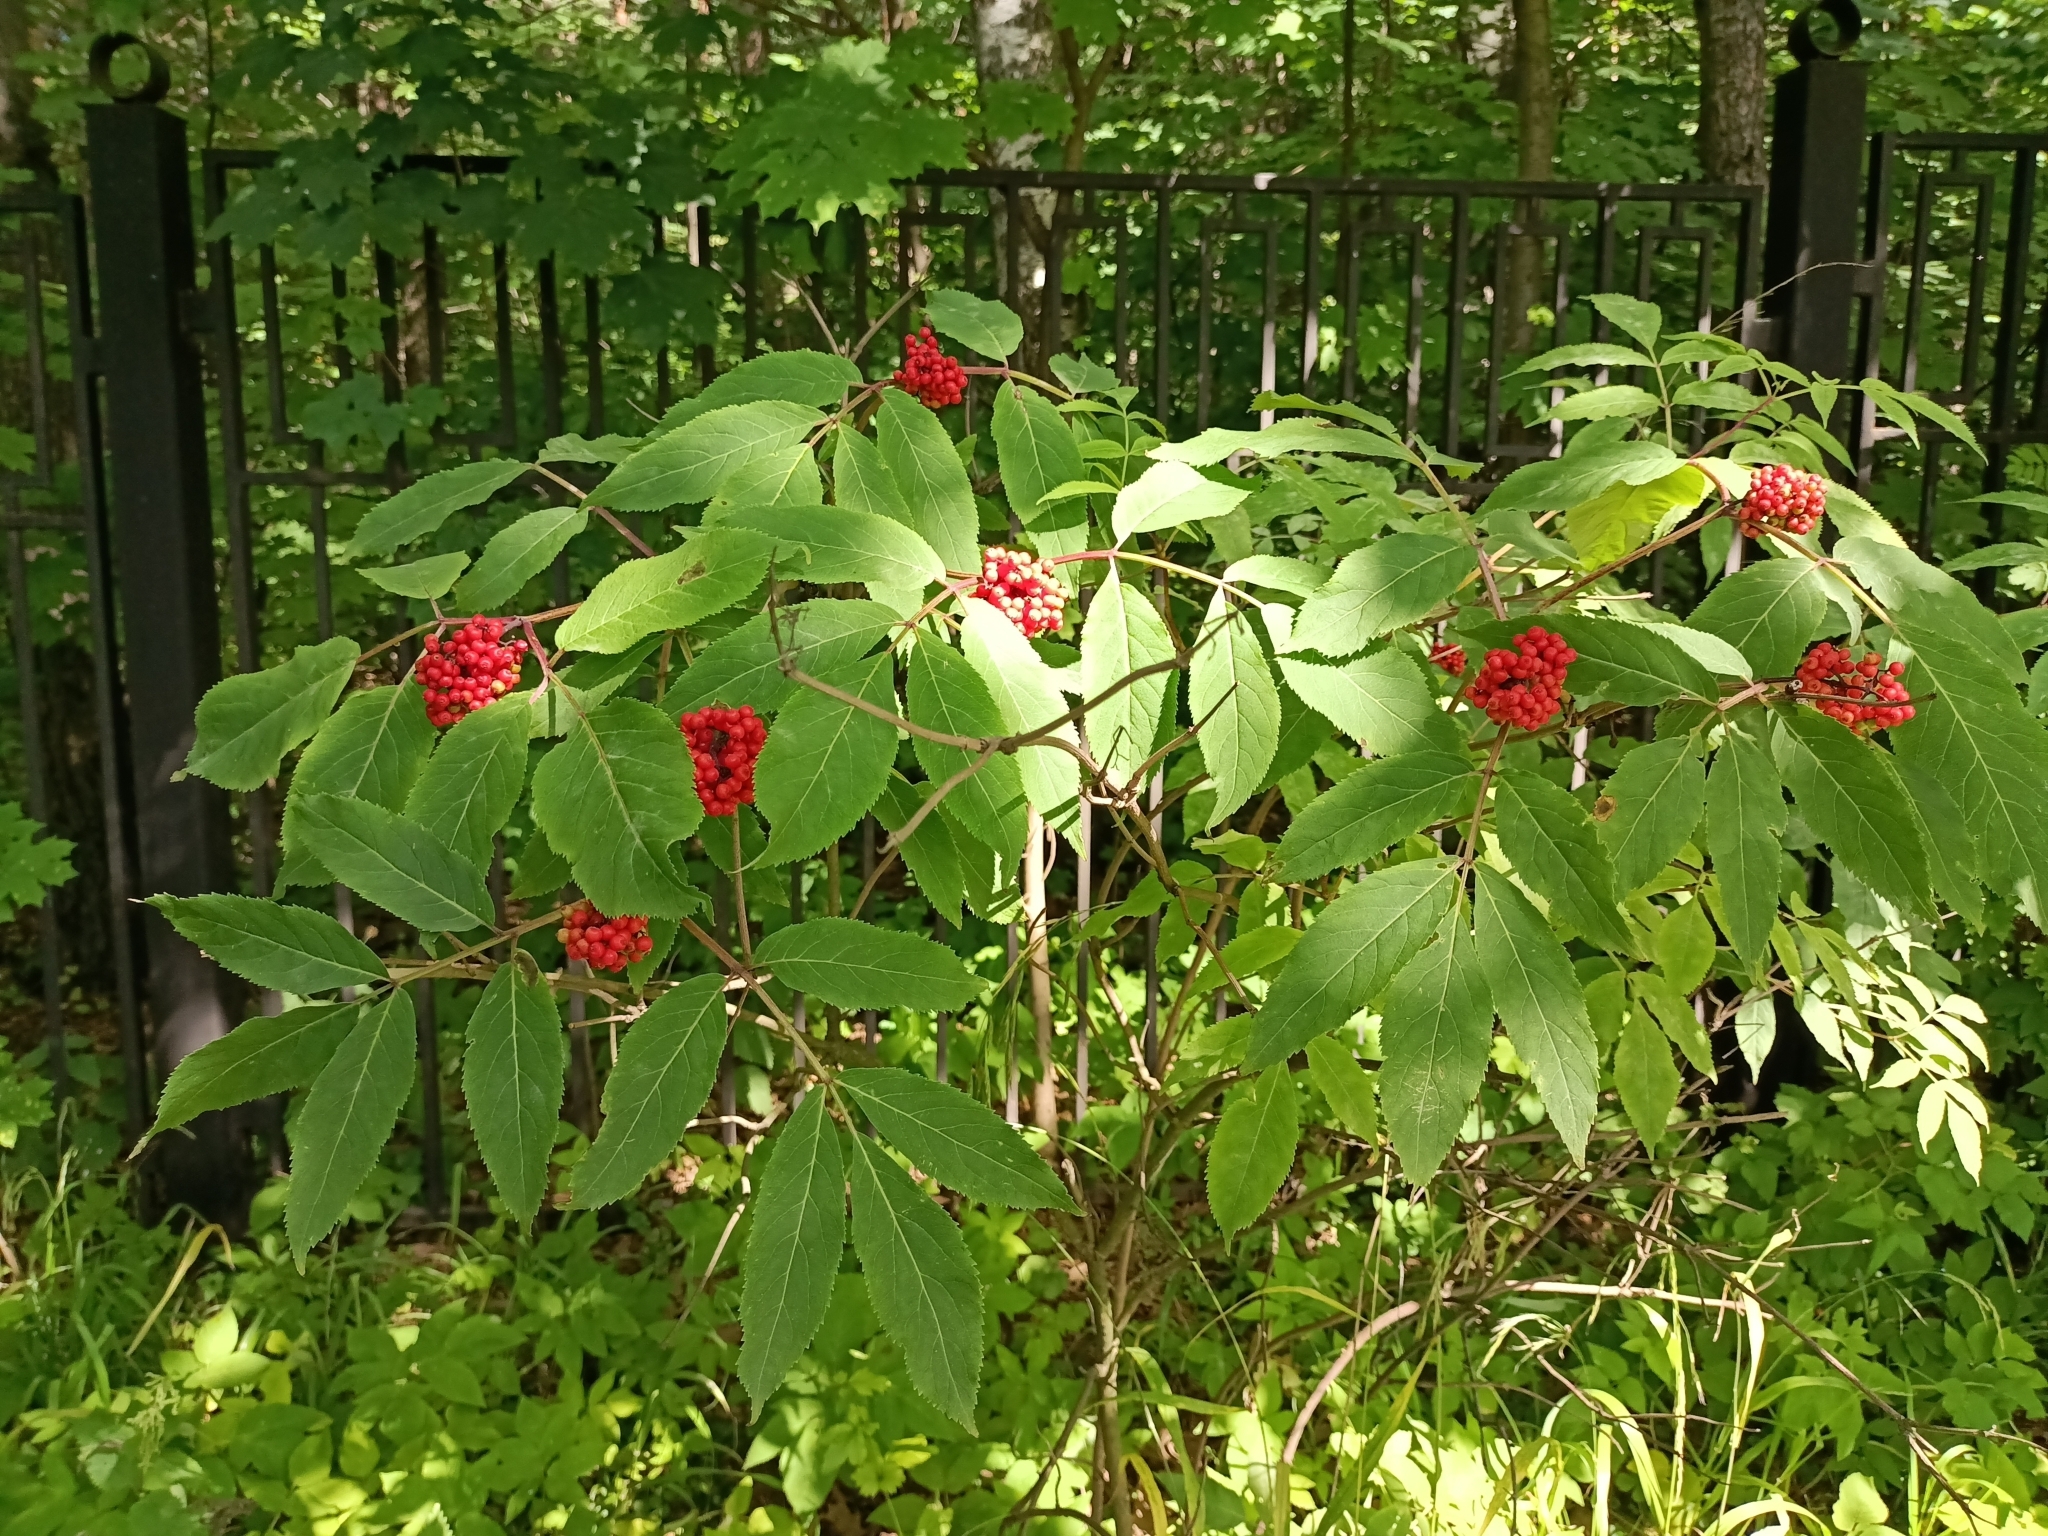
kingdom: Plantae
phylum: Tracheophyta
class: Magnoliopsida
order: Dipsacales
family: Viburnaceae
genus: Sambucus
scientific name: Sambucus racemosa
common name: Red-berried elder
